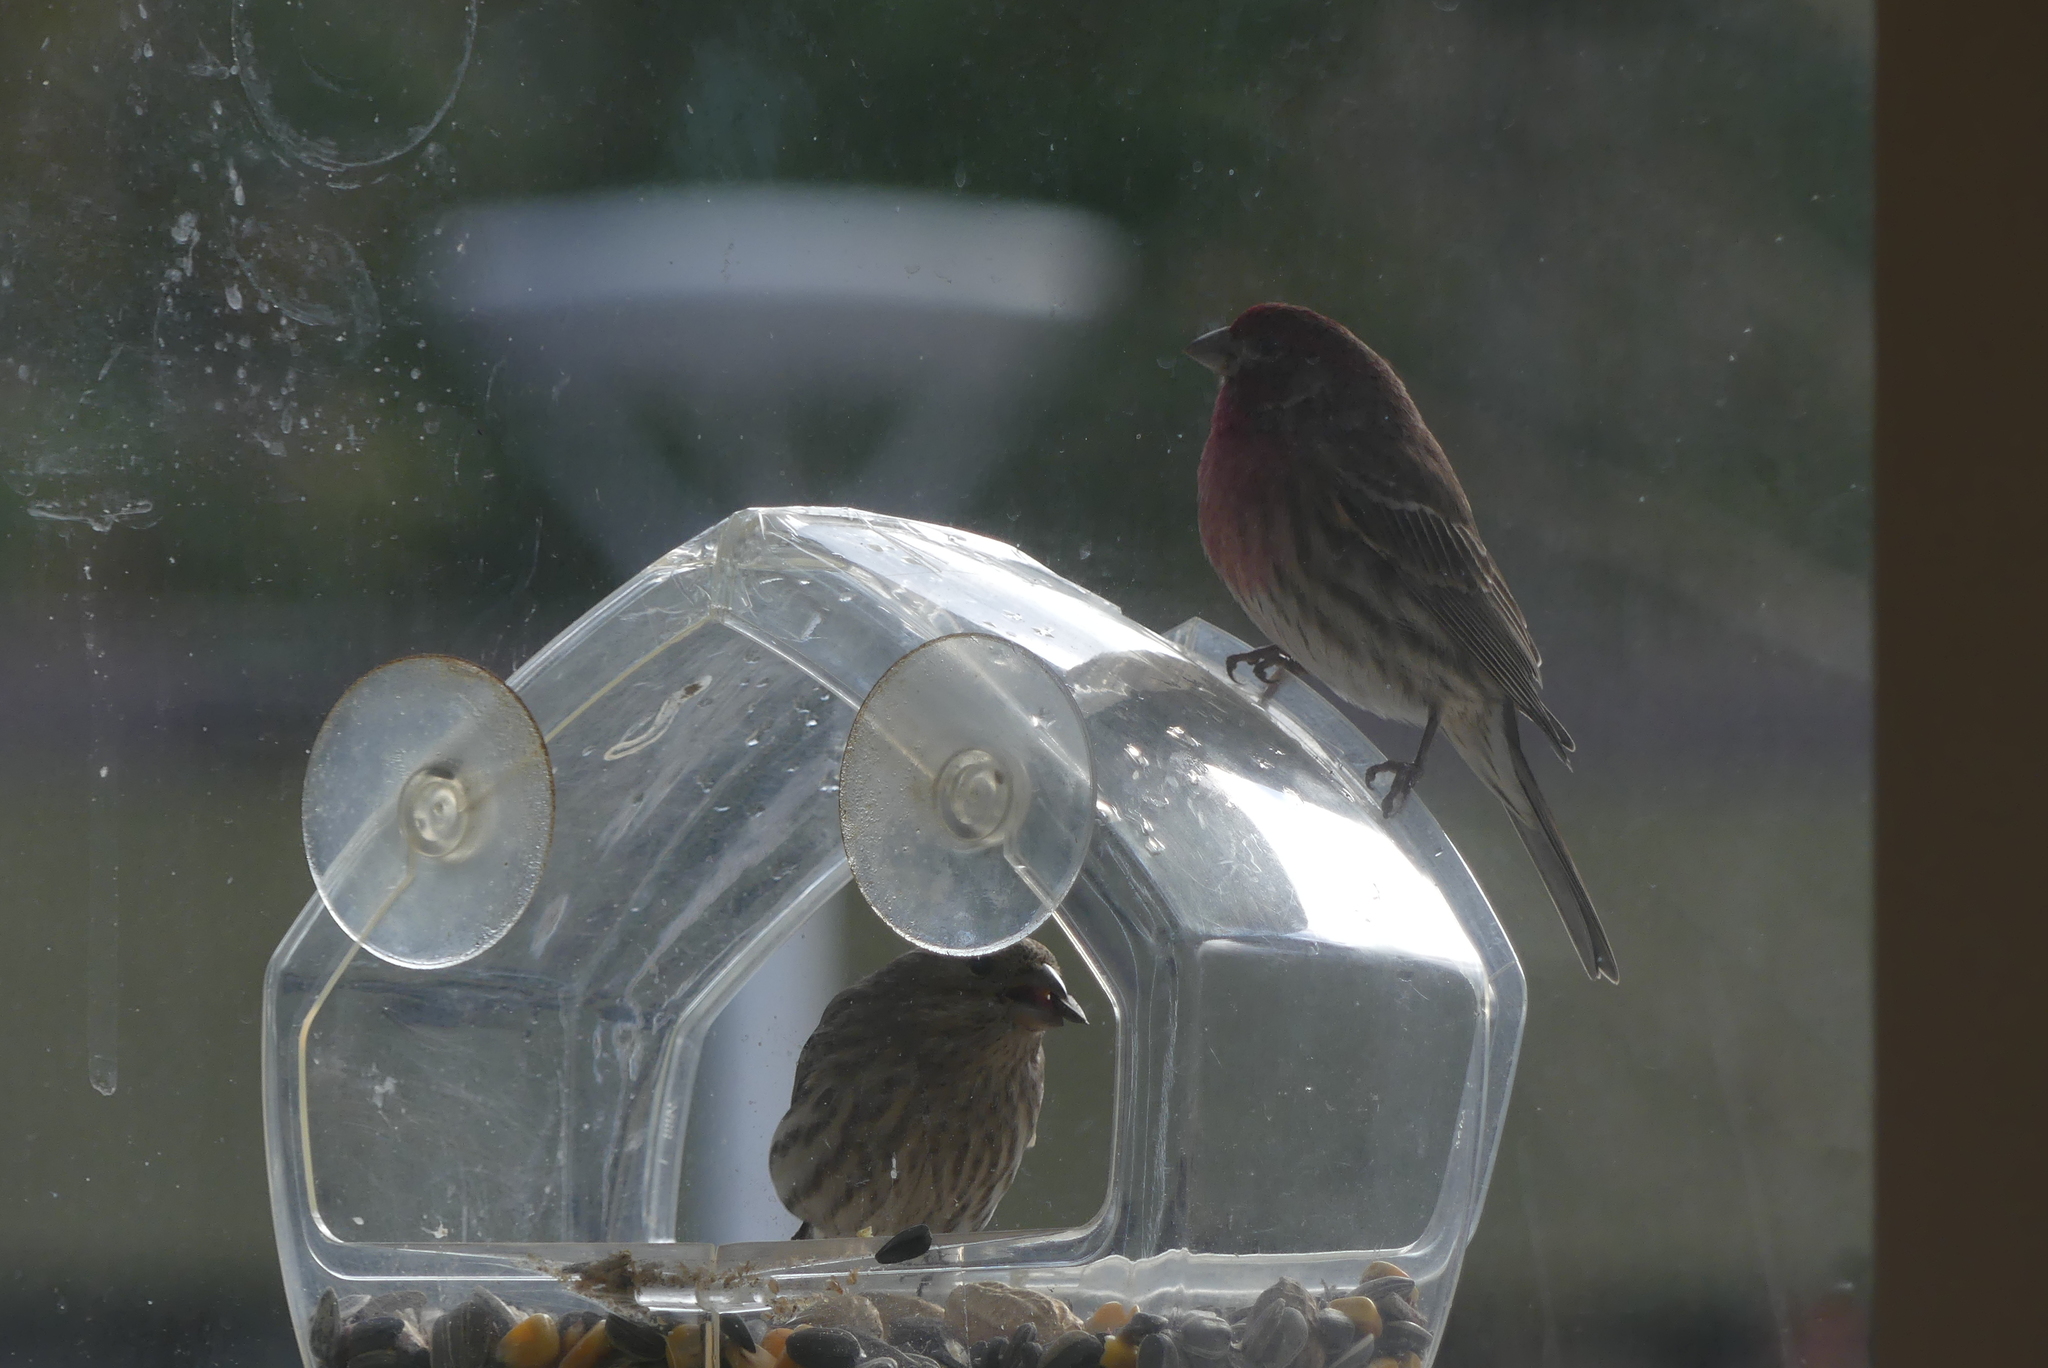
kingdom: Animalia
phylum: Chordata
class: Aves
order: Passeriformes
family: Fringillidae
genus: Haemorhous
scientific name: Haemorhous mexicanus
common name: House finch
